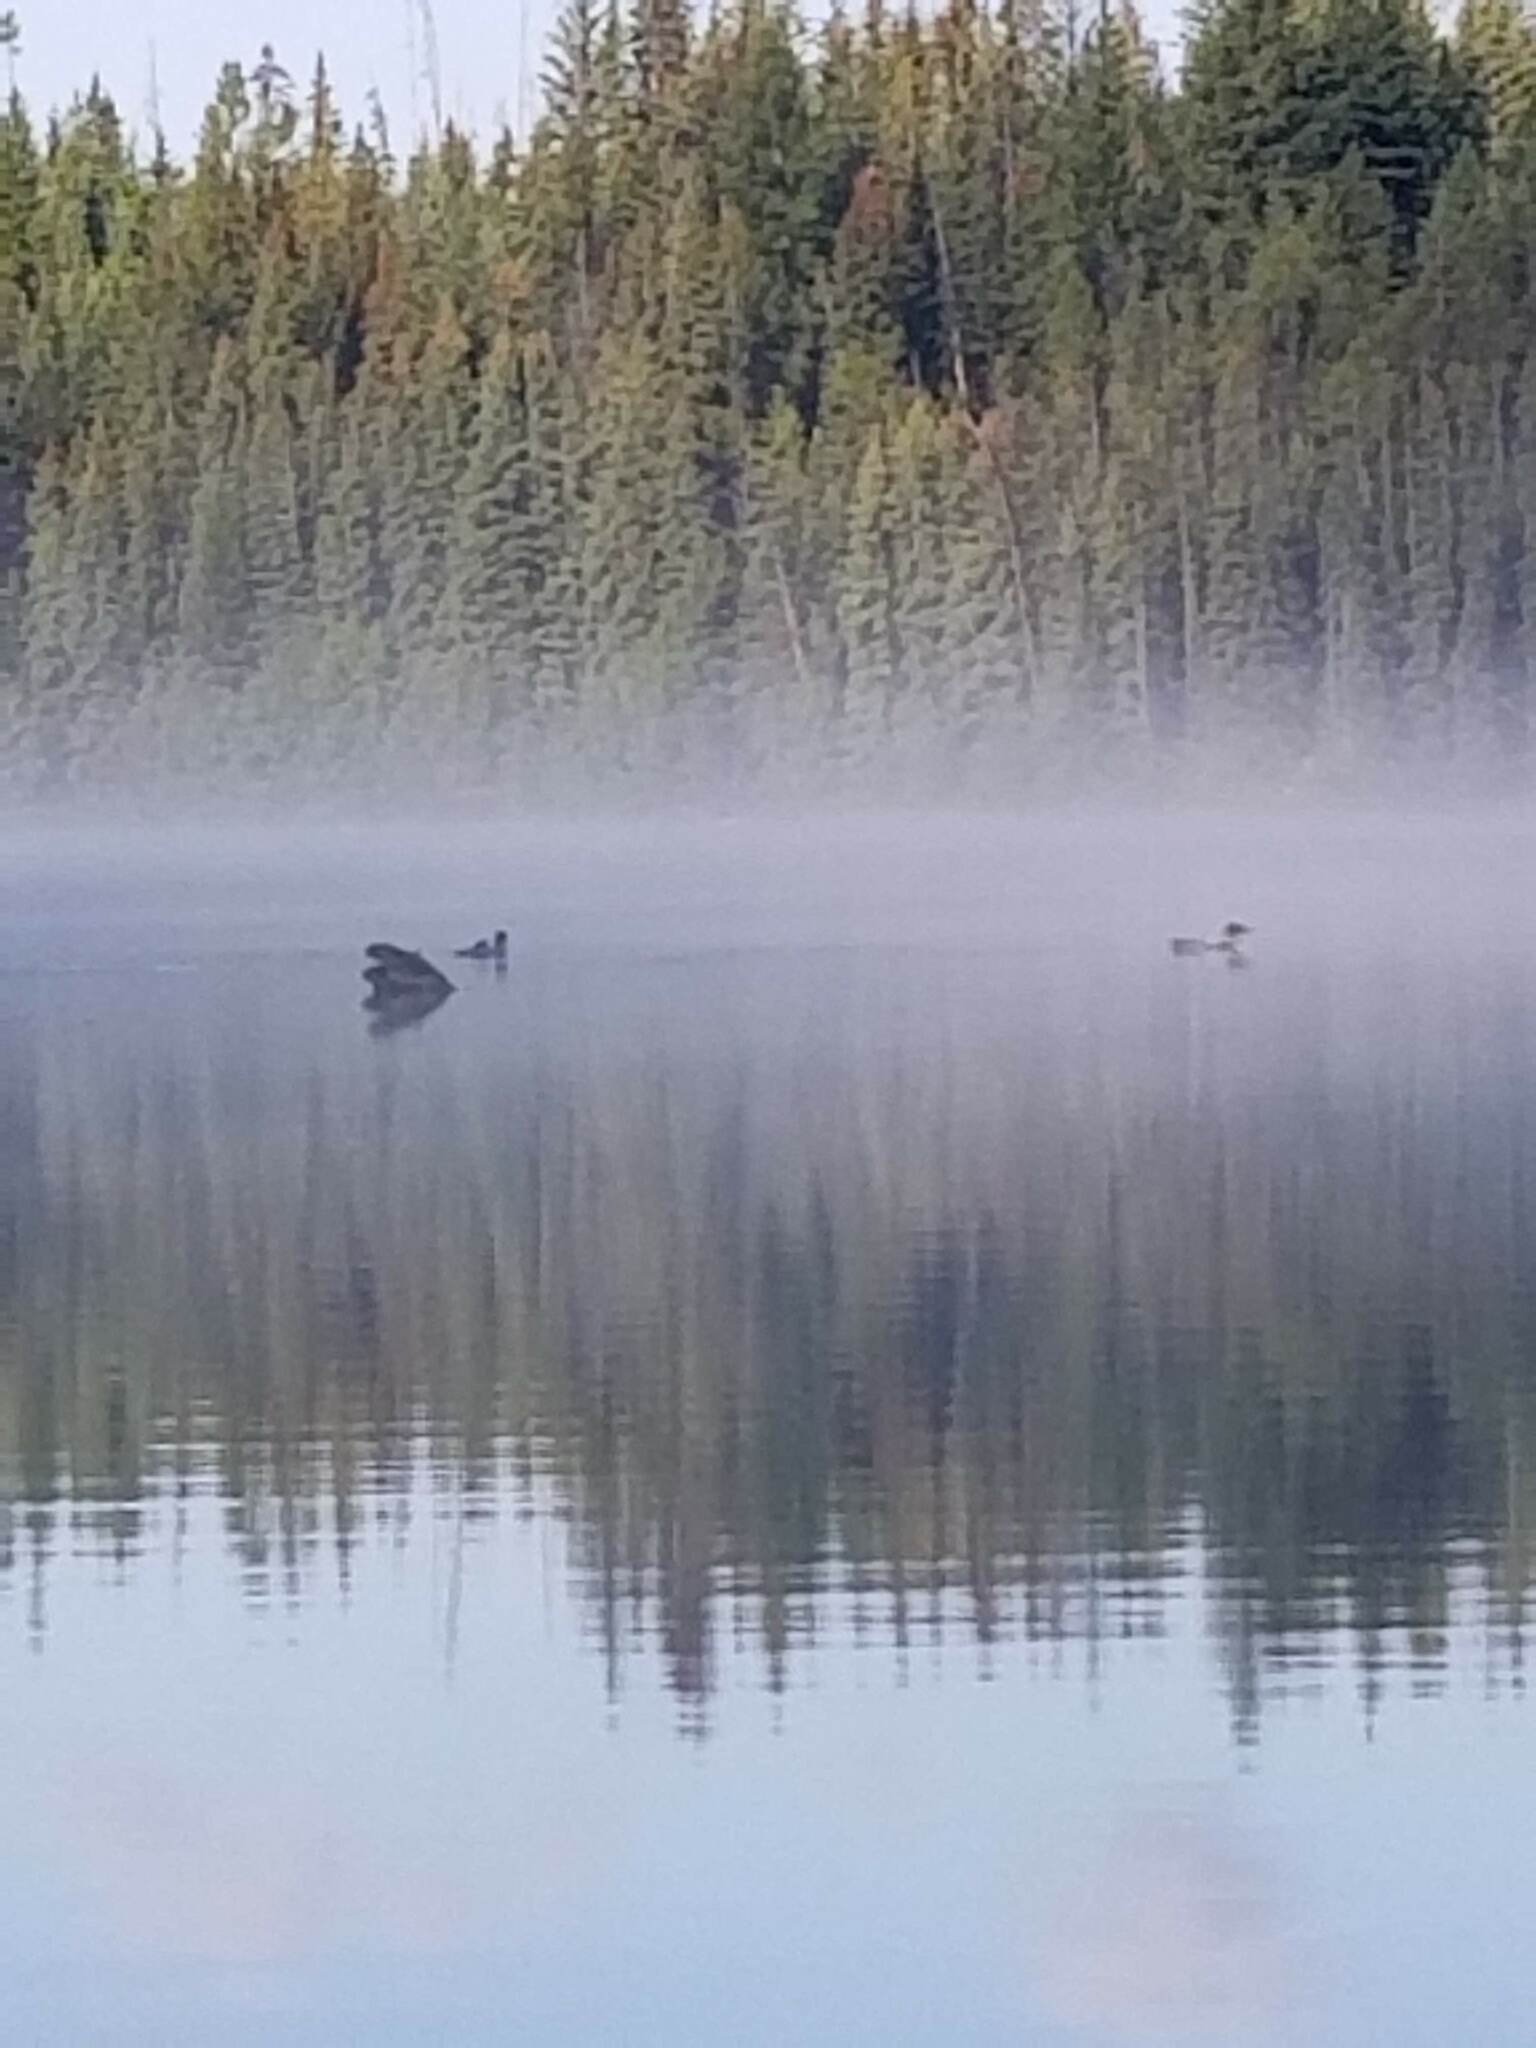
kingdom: Animalia
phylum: Chordata
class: Aves
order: Gaviiformes
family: Gaviidae
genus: Gavia
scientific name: Gavia immer
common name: Common loon
